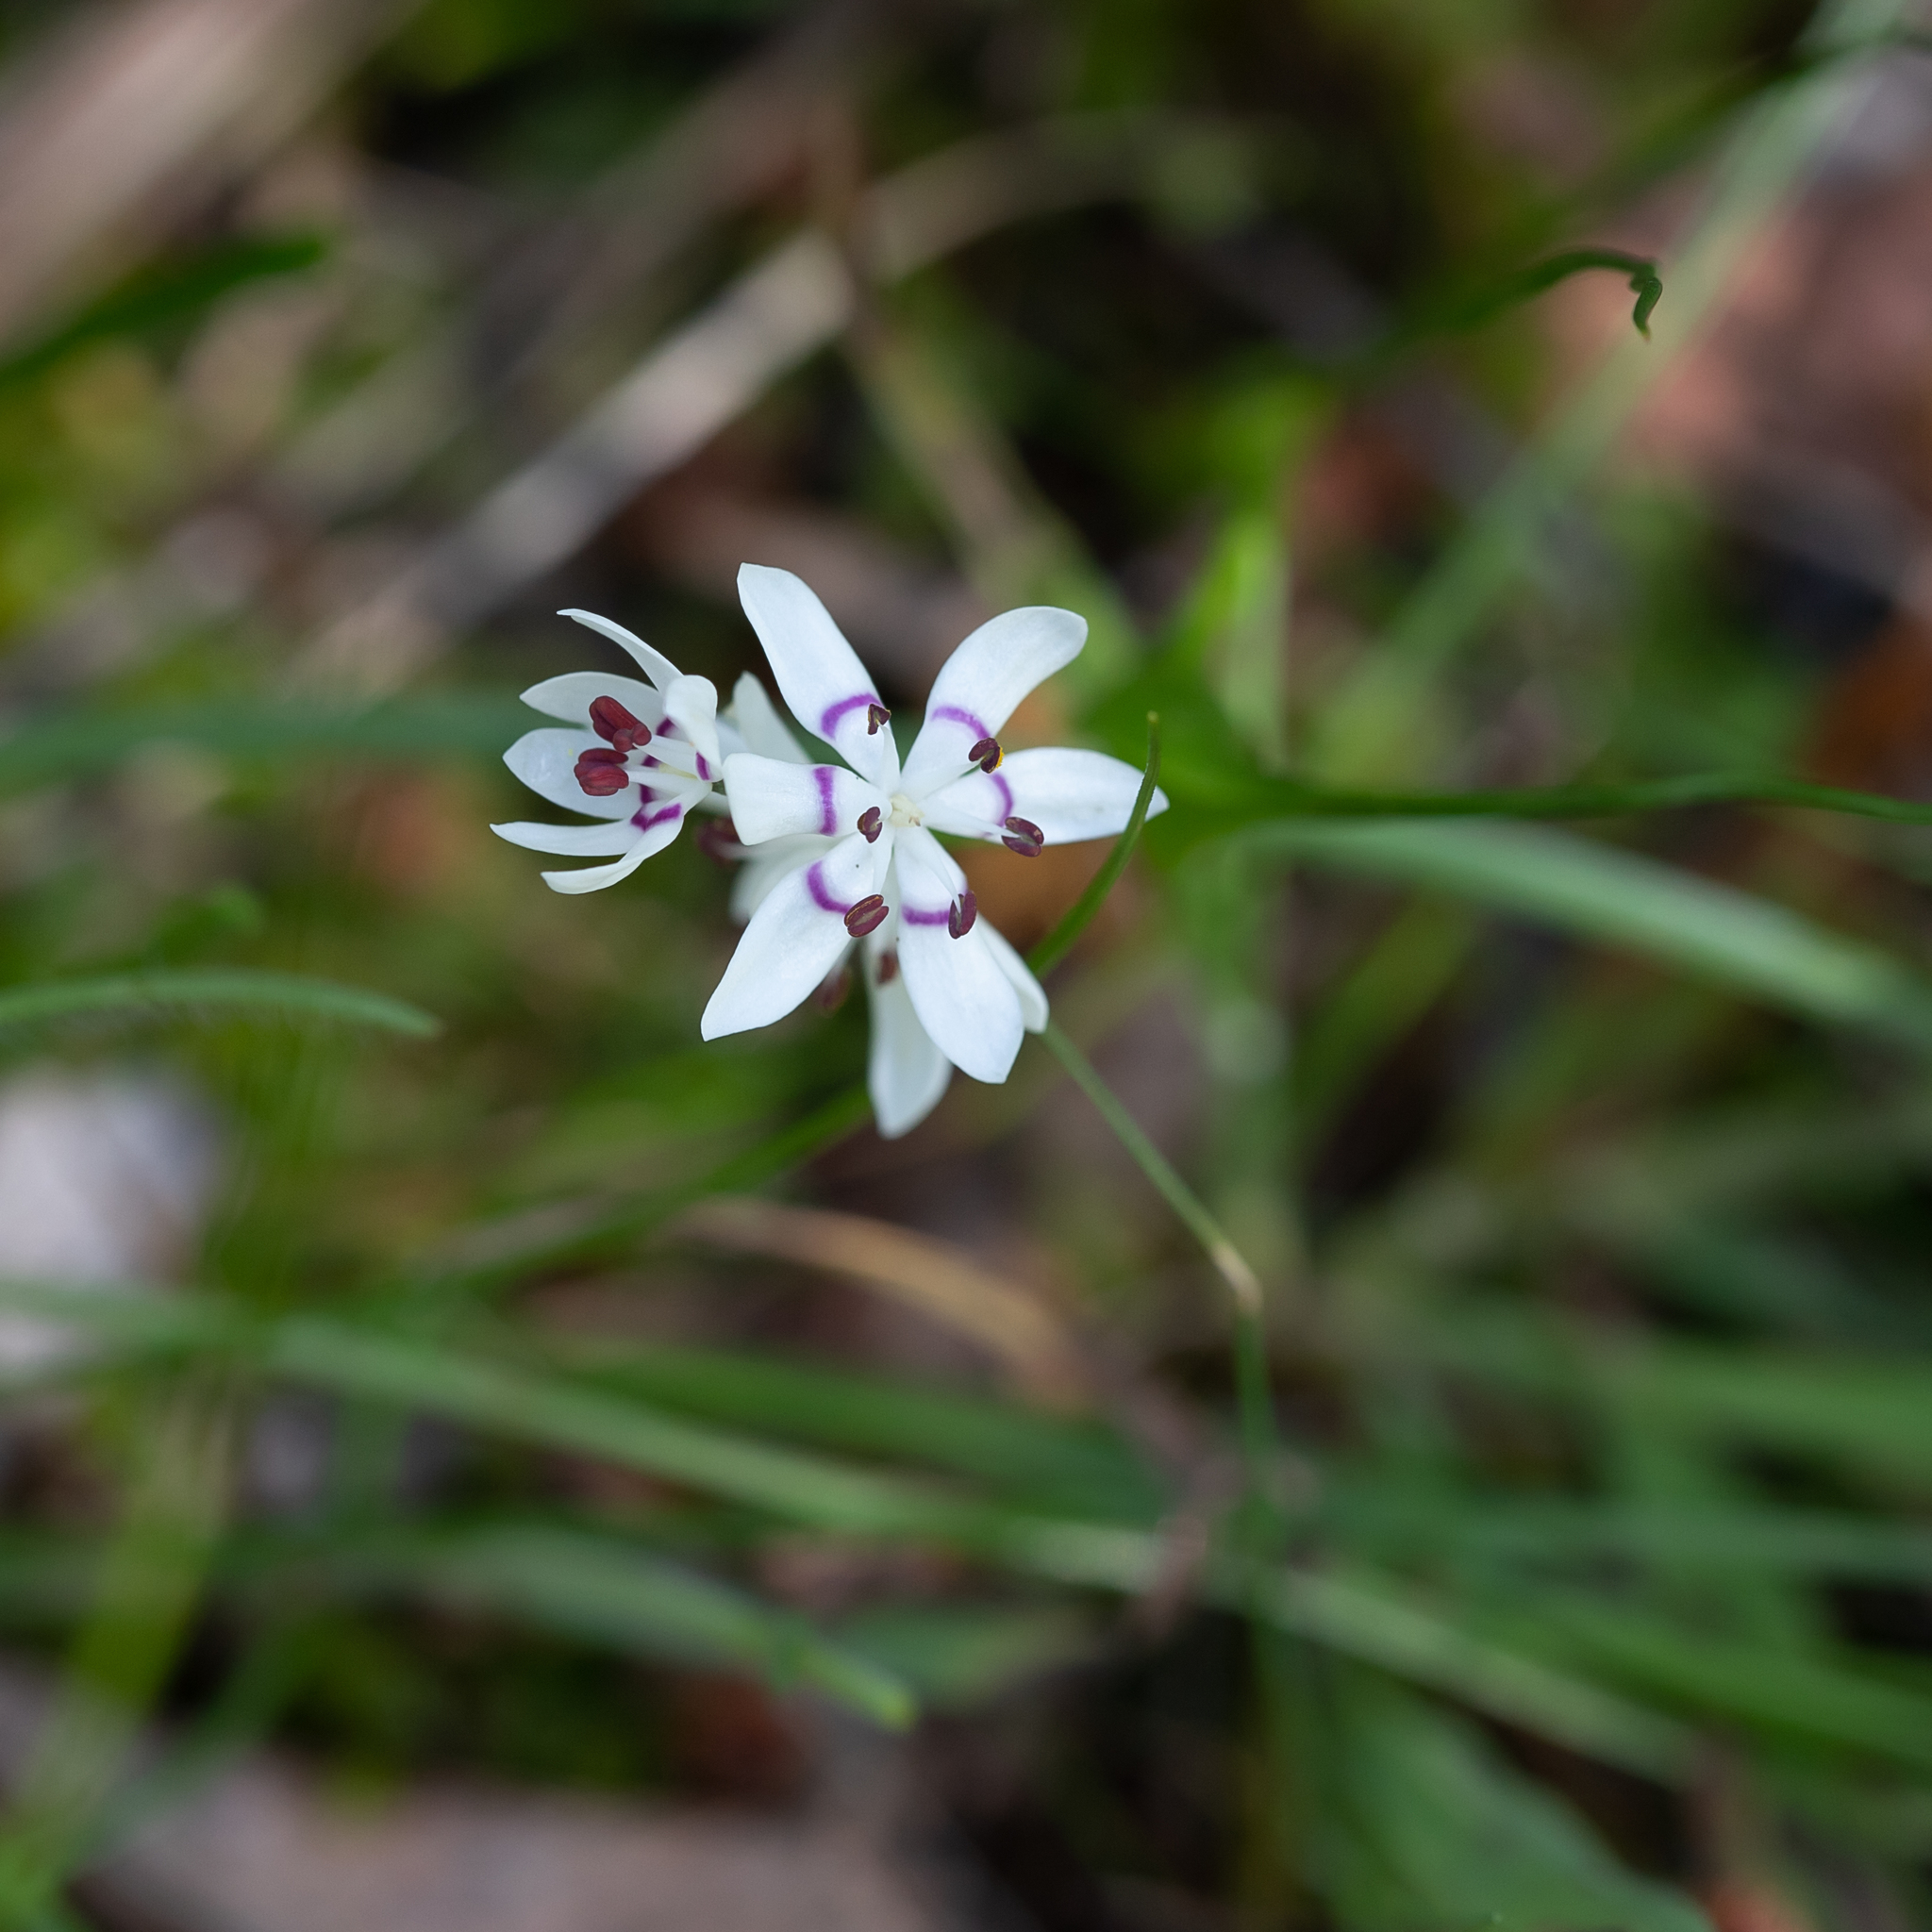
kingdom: Plantae
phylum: Tracheophyta
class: Liliopsida
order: Liliales
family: Colchicaceae
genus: Wurmbea
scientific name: Wurmbea dioica
